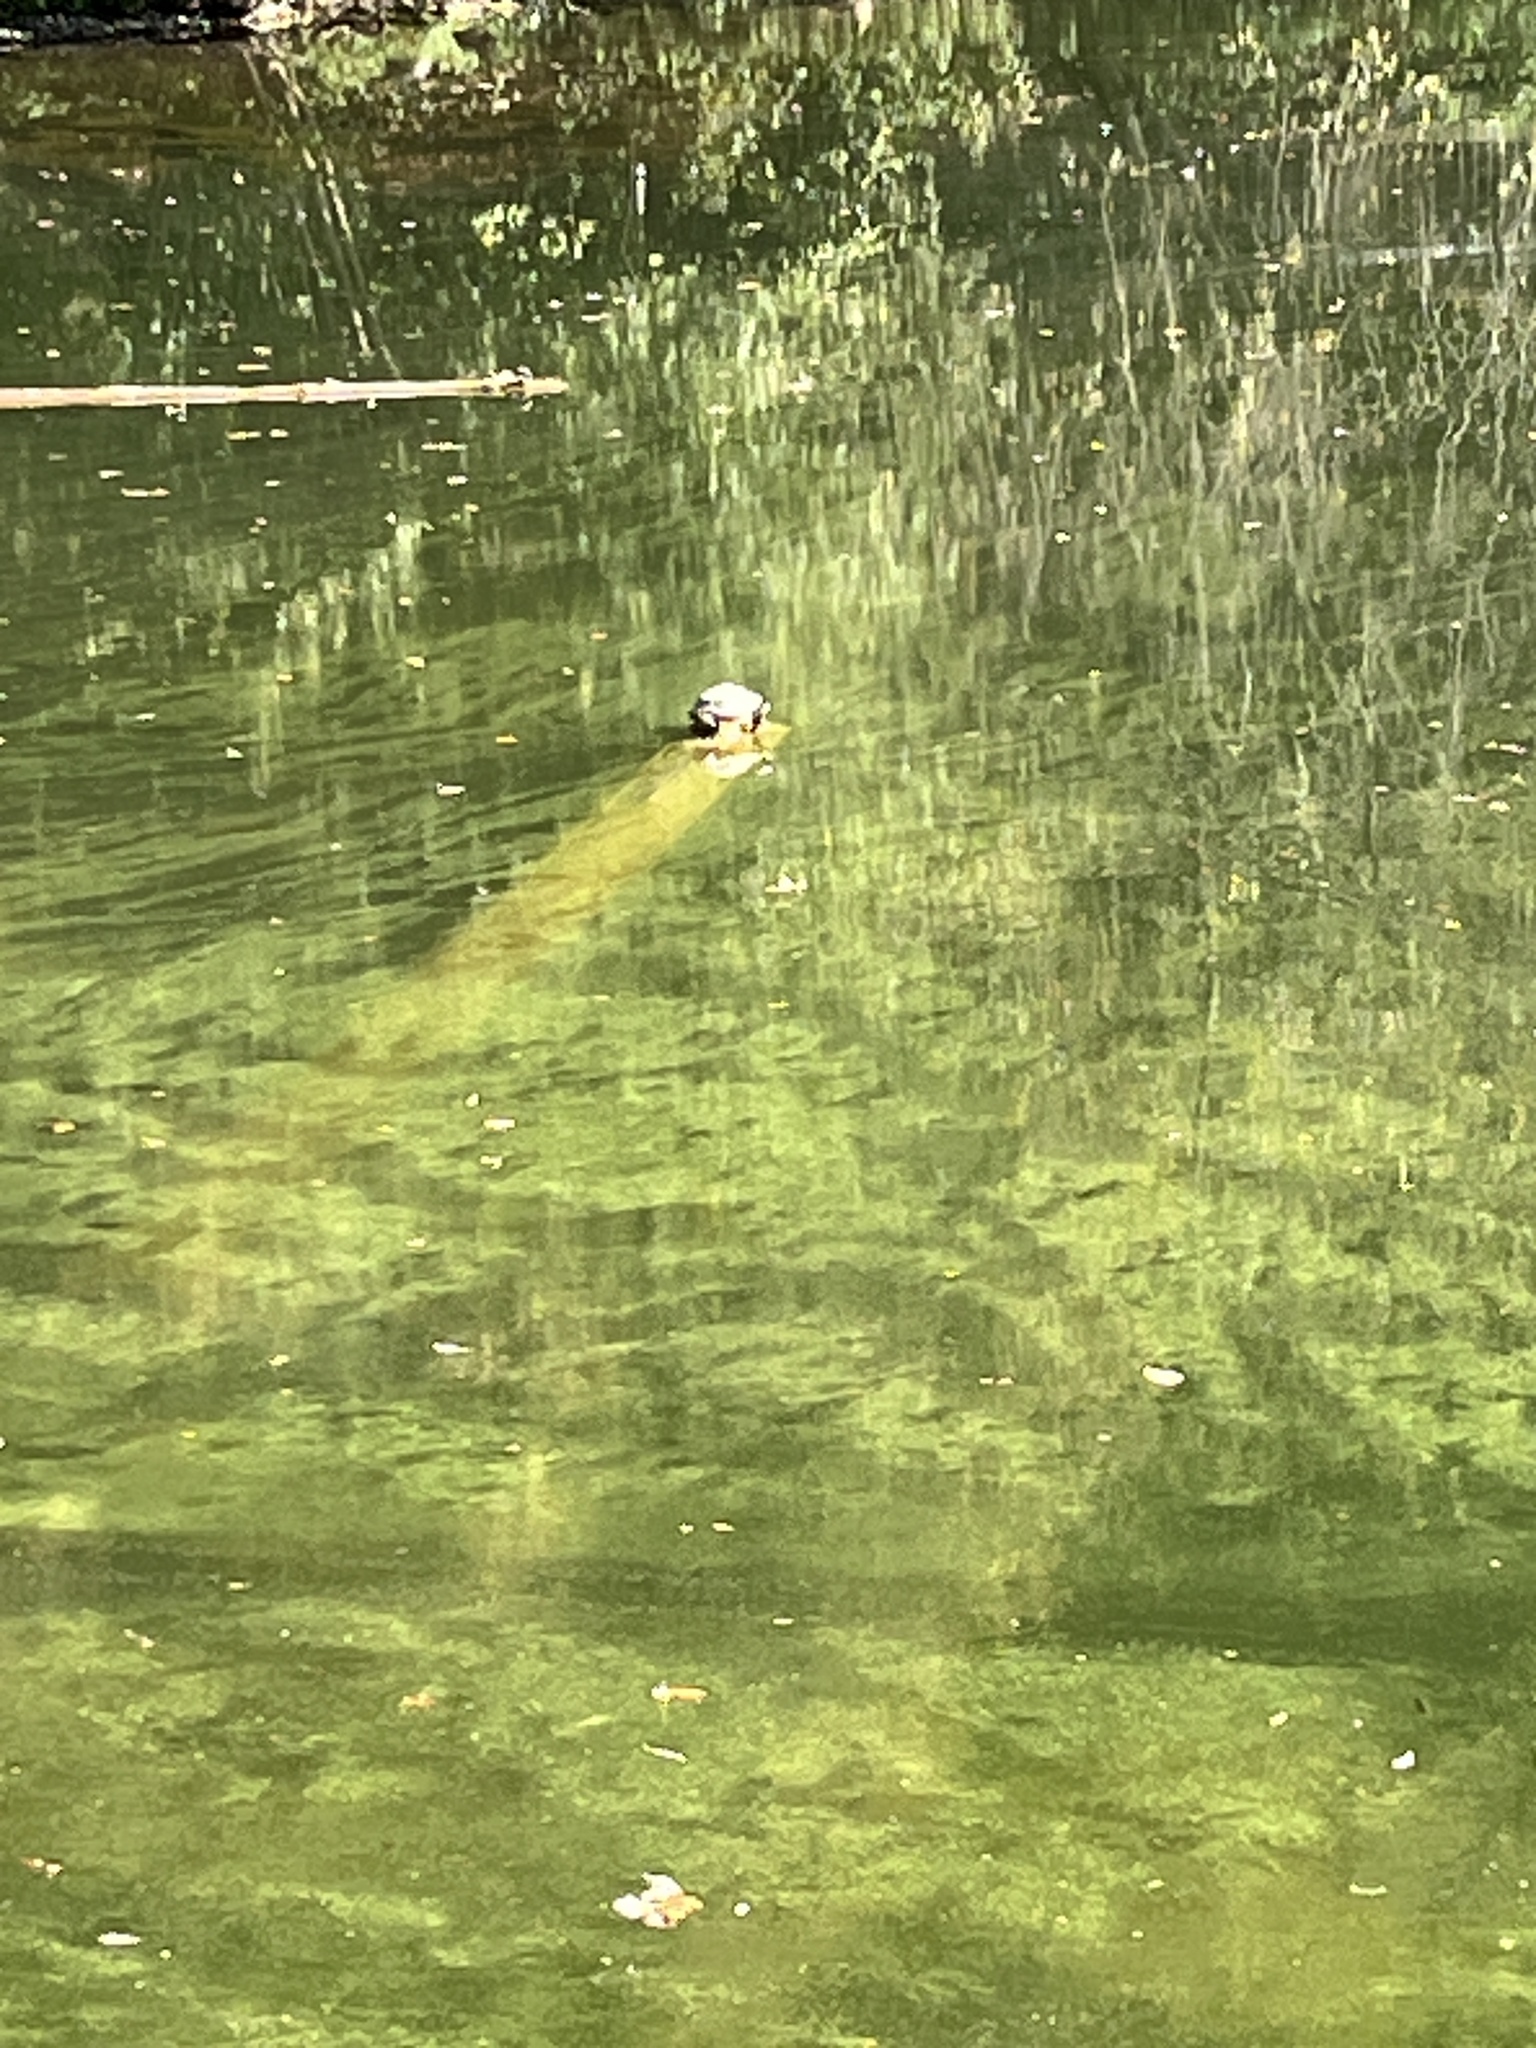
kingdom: Animalia
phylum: Chordata
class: Testudines
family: Emydidae
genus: Trachemys
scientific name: Trachemys scripta
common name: Slider
